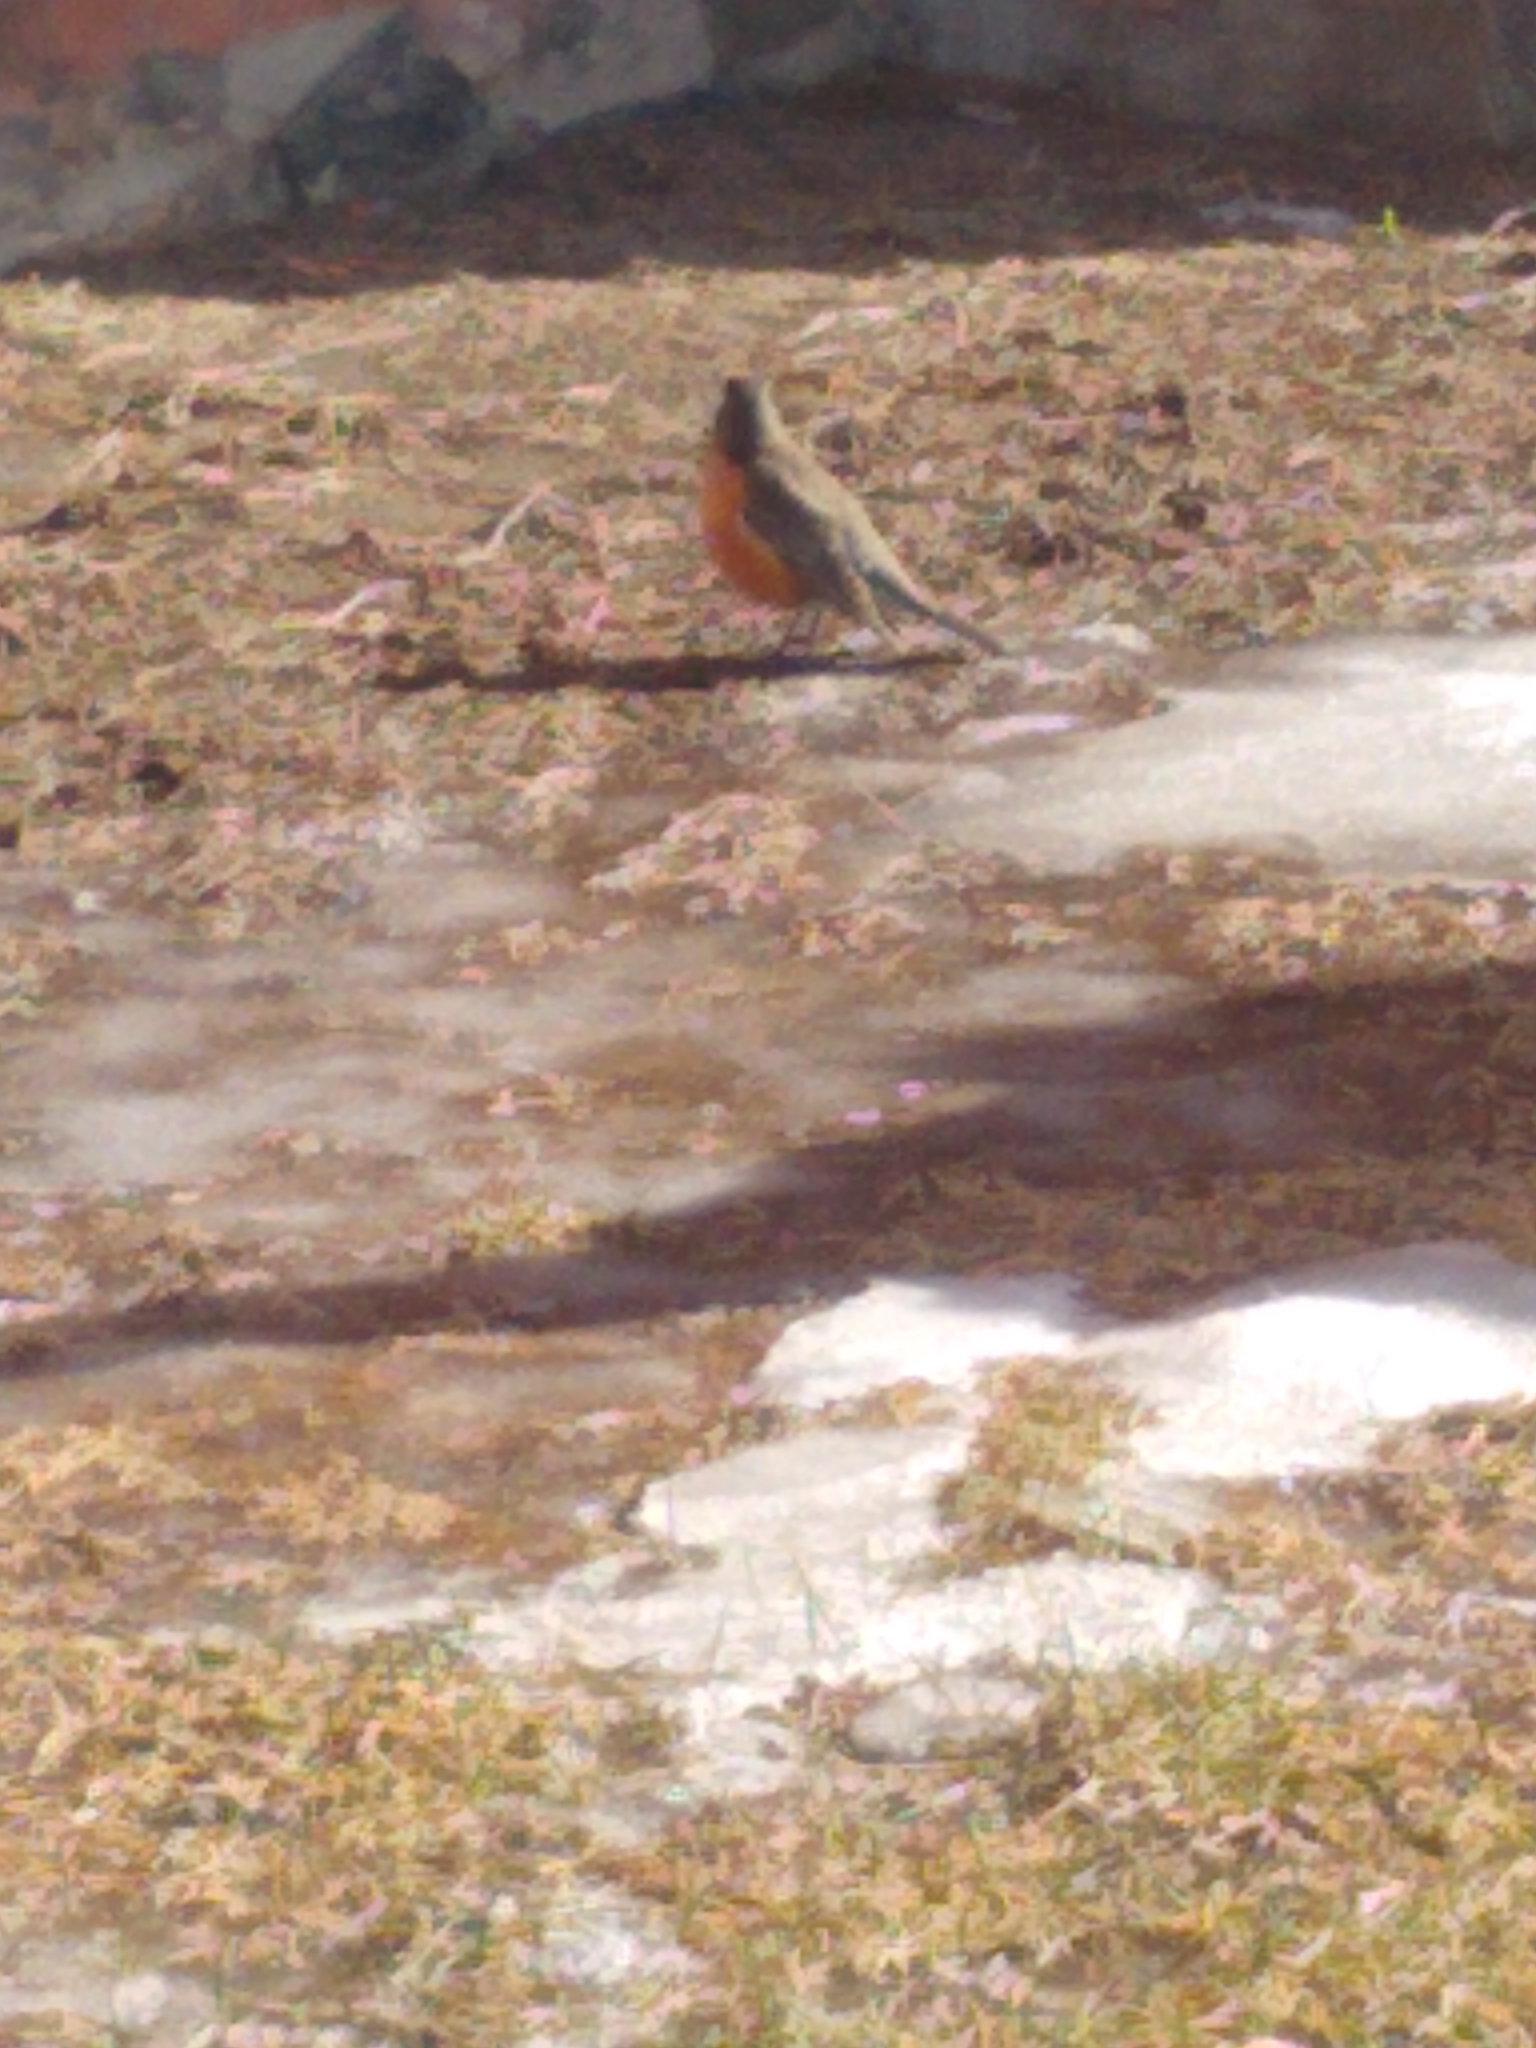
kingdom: Animalia
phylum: Chordata
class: Aves
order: Passeriformes
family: Turdidae
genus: Turdus
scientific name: Turdus migratorius
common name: American robin
